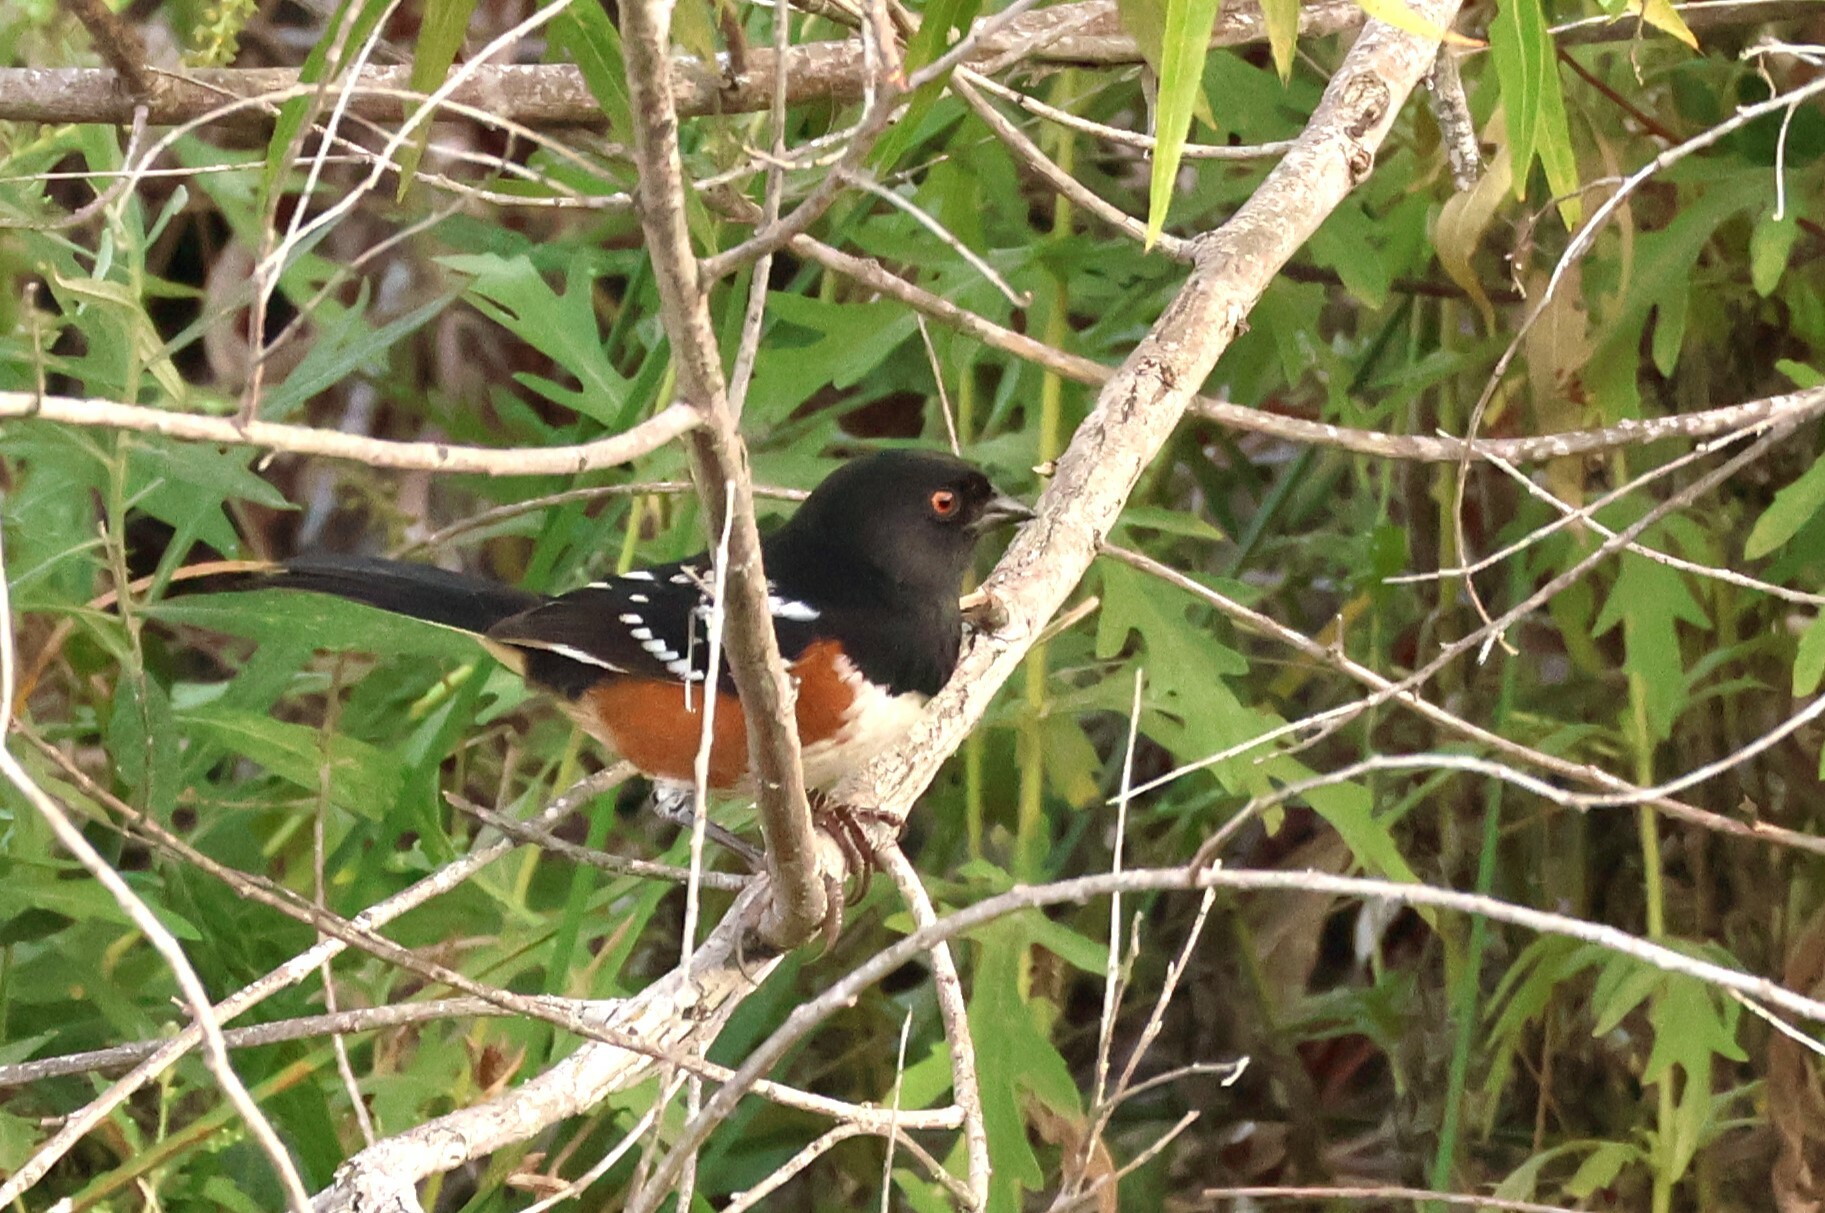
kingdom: Animalia
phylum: Chordata
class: Aves
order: Passeriformes
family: Passerellidae
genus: Pipilo
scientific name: Pipilo maculatus
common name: Spotted towhee
